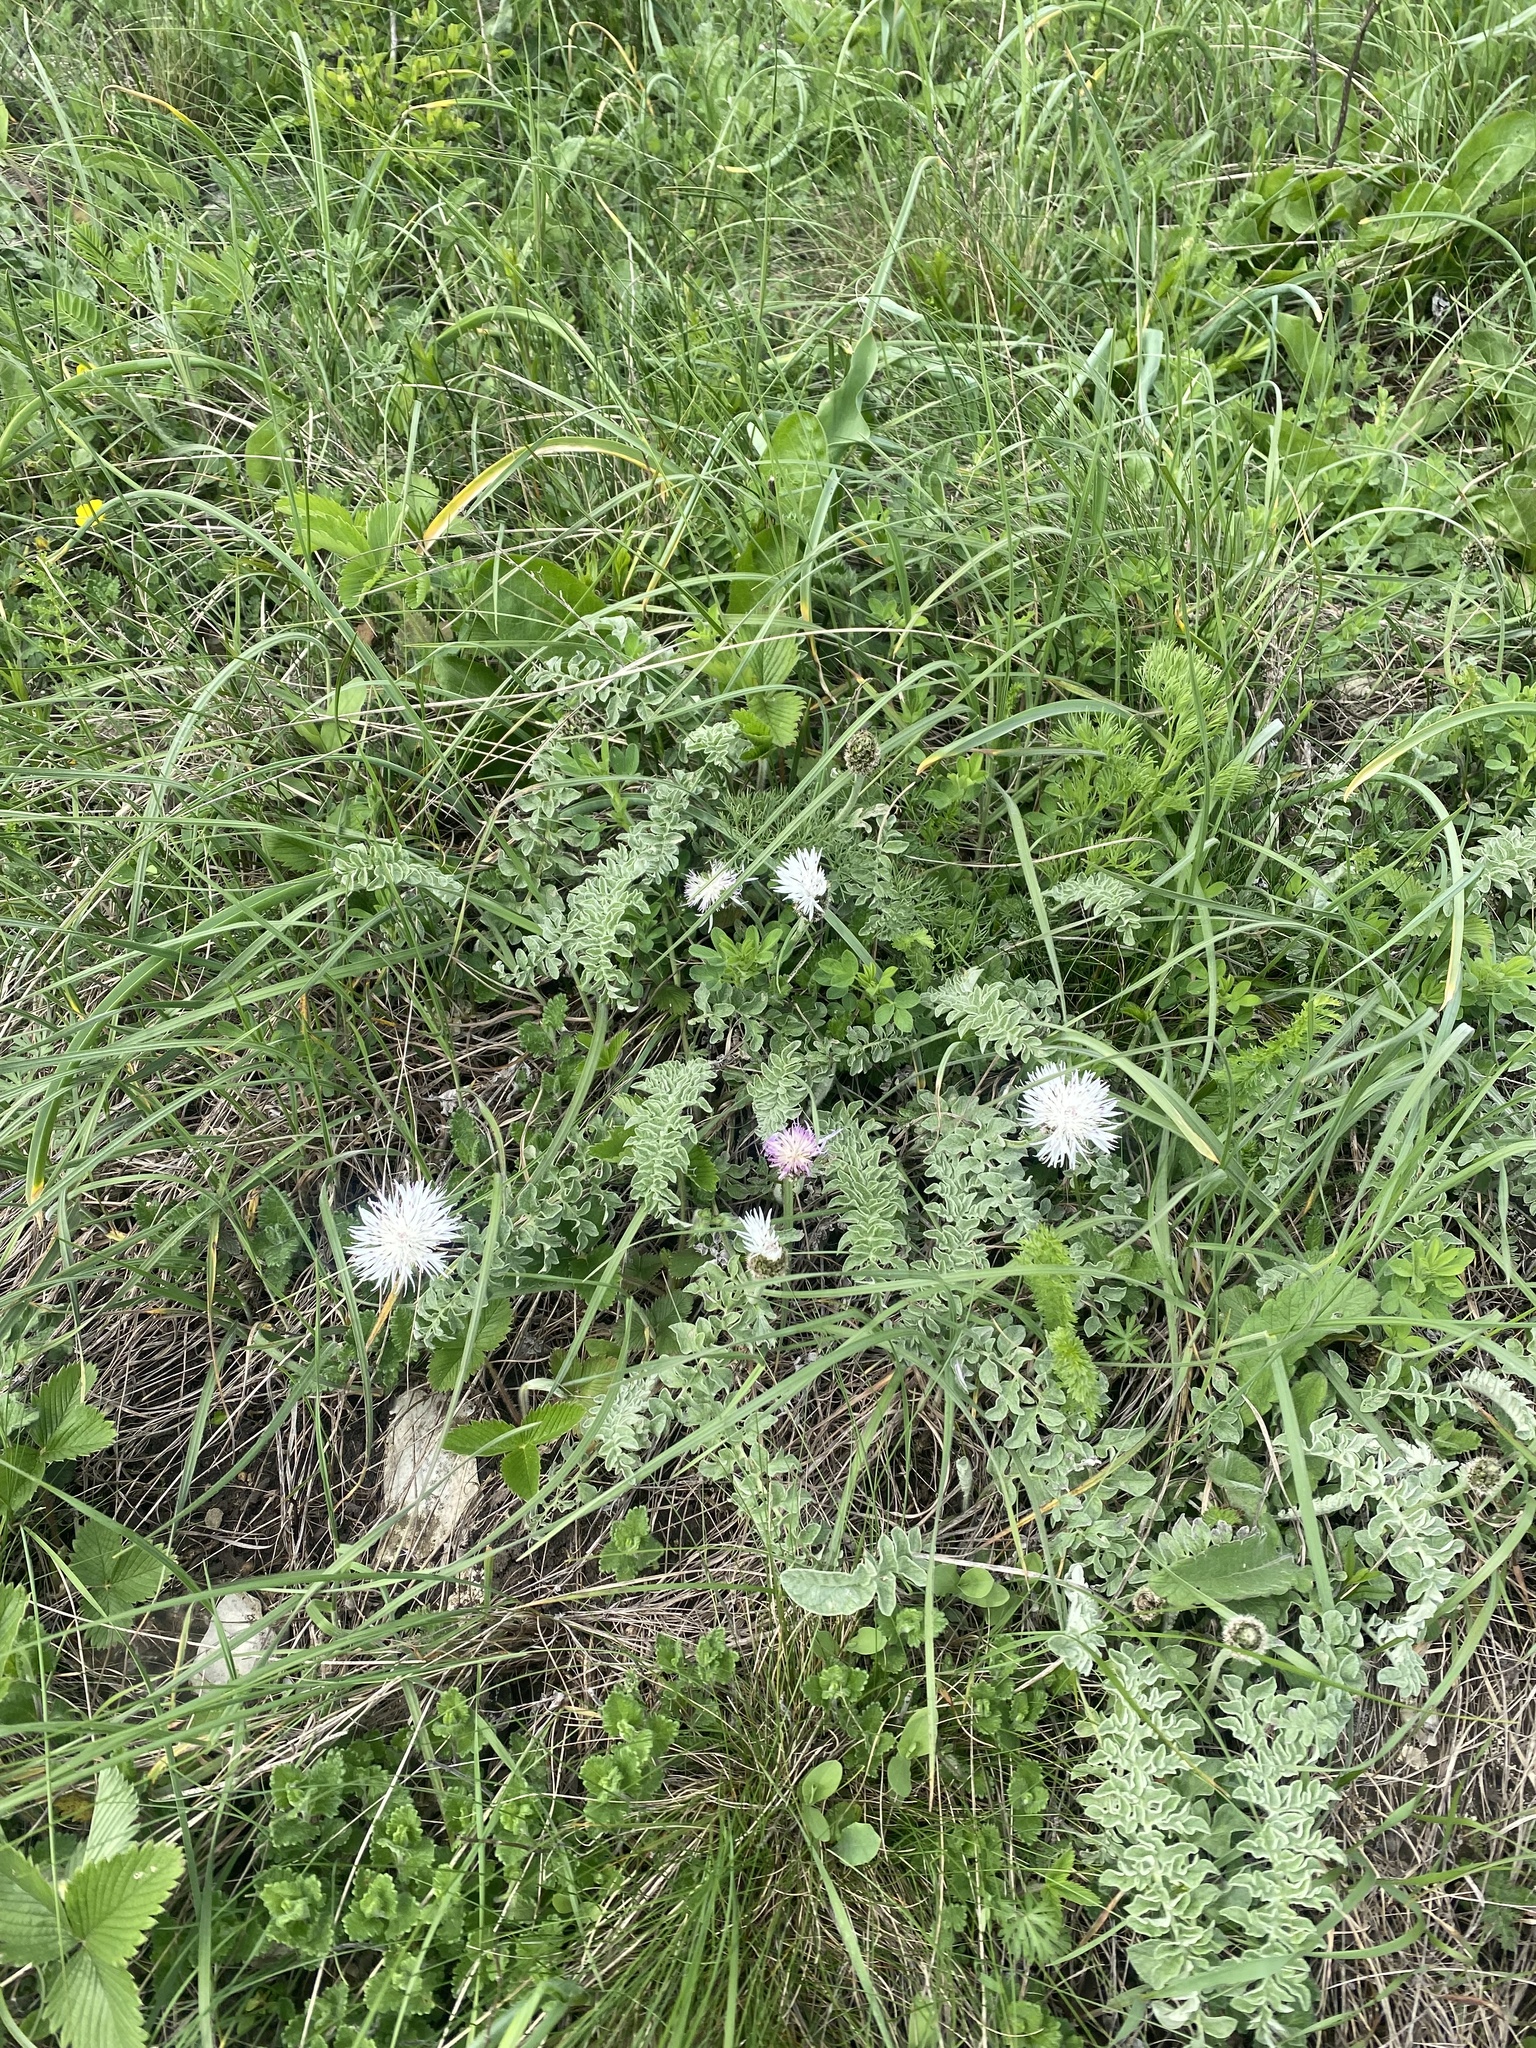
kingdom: Plantae
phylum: Tracheophyta
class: Magnoliopsida
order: Asterales
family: Asteraceae
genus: Psephellus
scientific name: Psephellus declinatus
